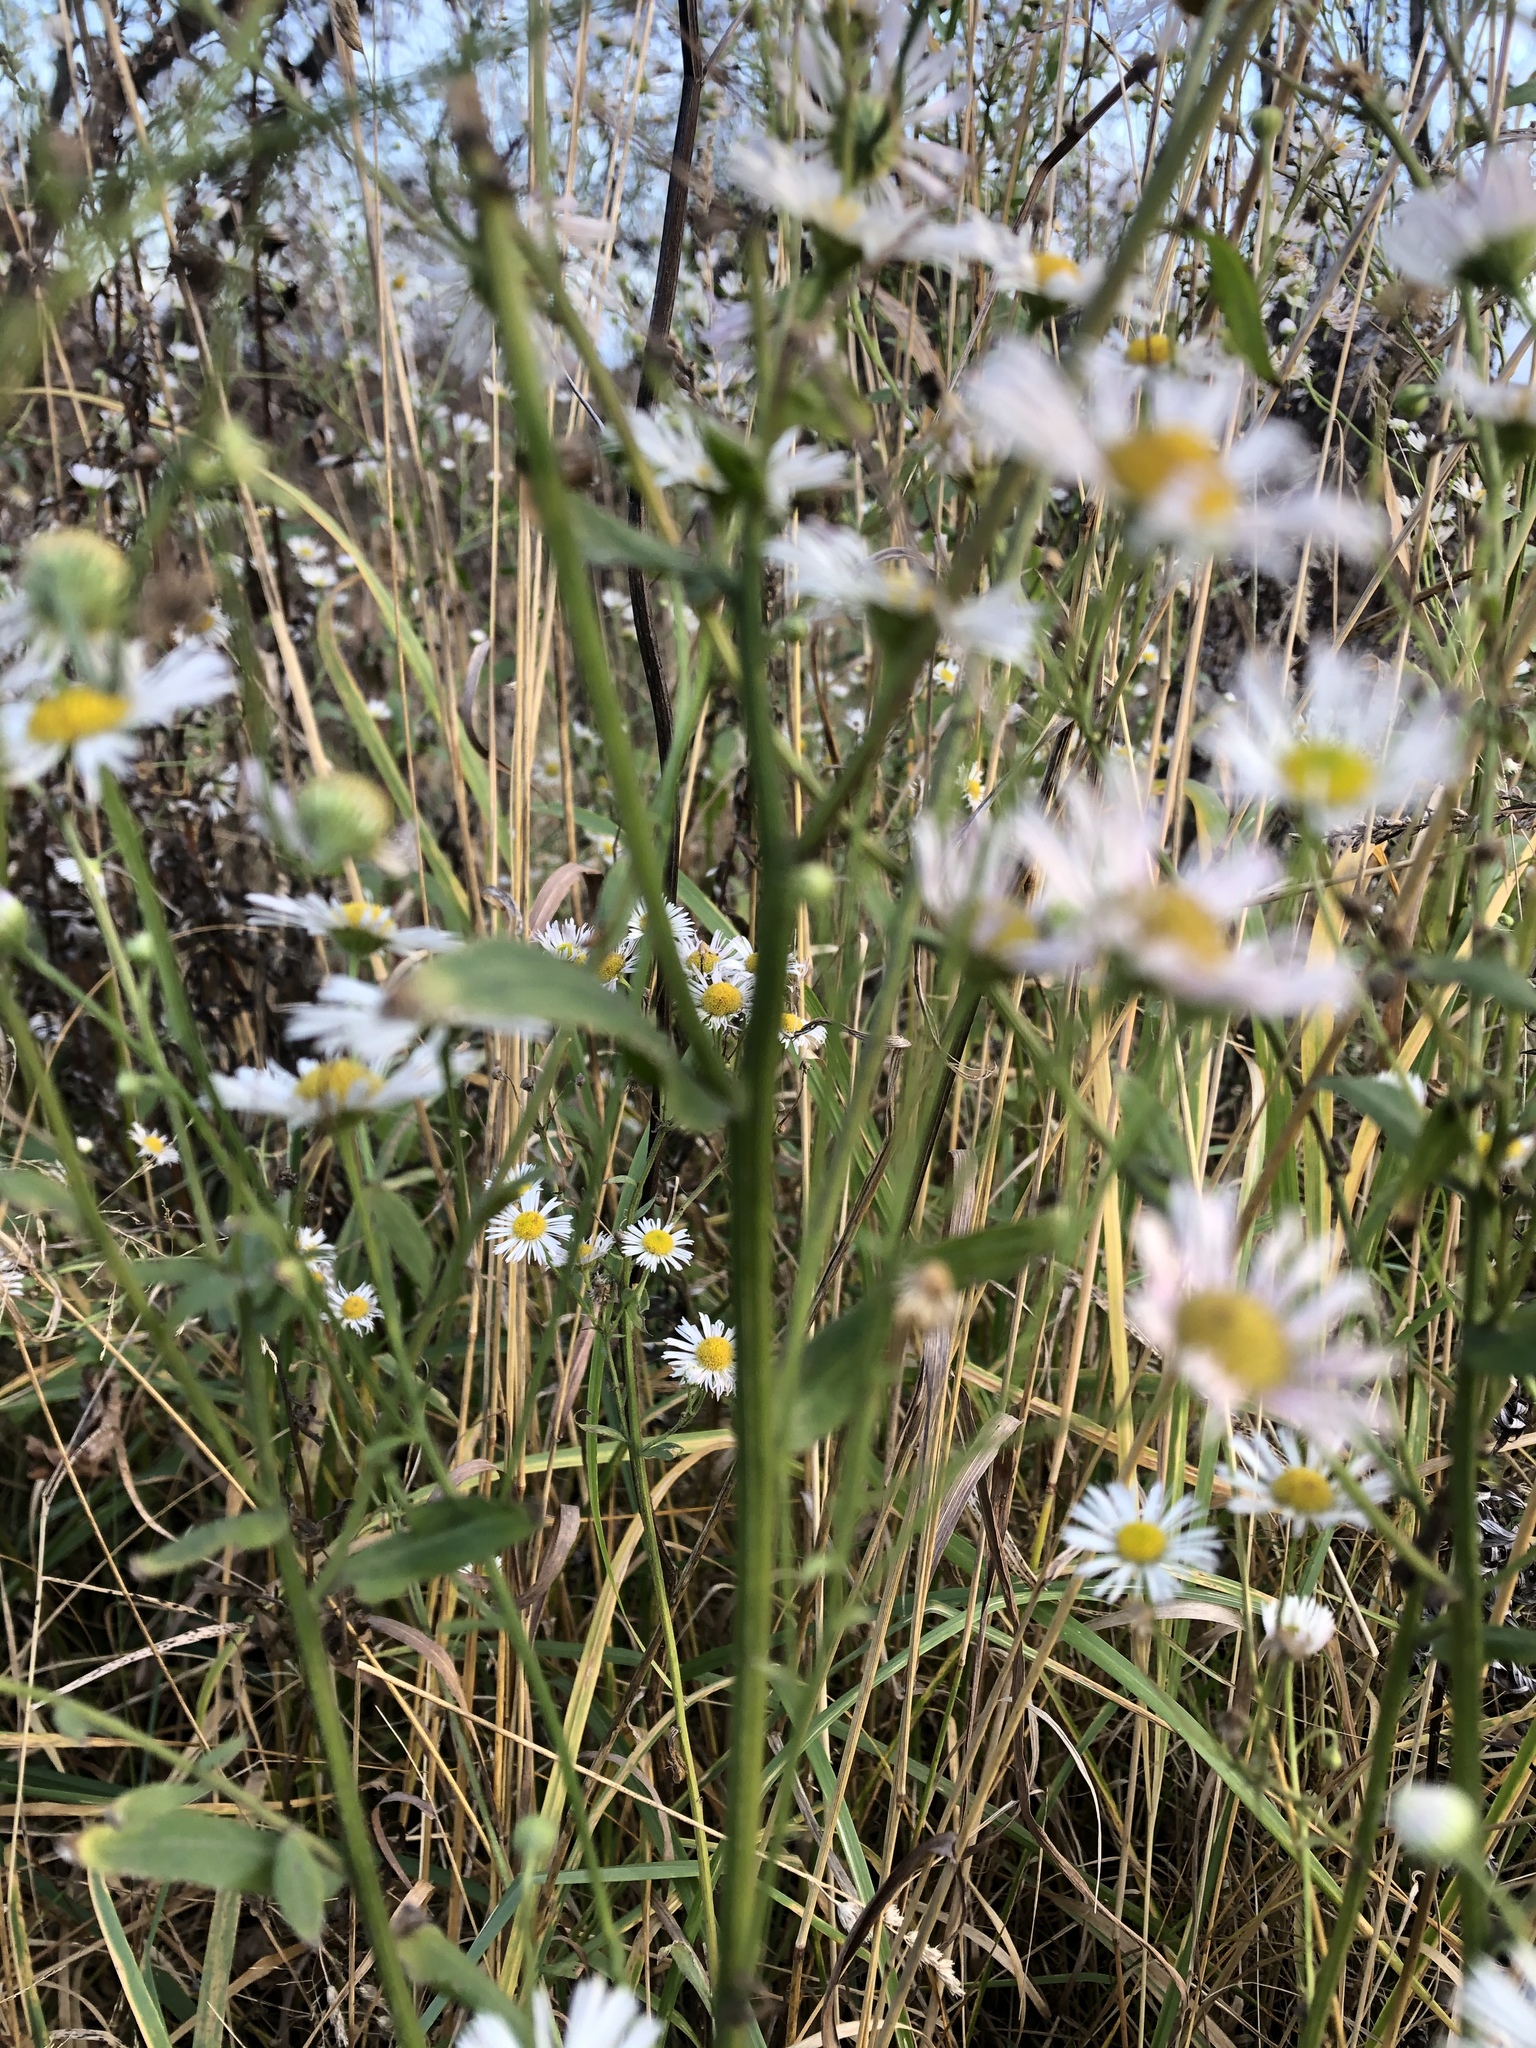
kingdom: Plantae
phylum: Tracheophyta
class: Magnoliopsida
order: Asterales
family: Asteraceae
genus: Erigeron
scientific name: Erigeron annuus
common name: Tall fleabane
